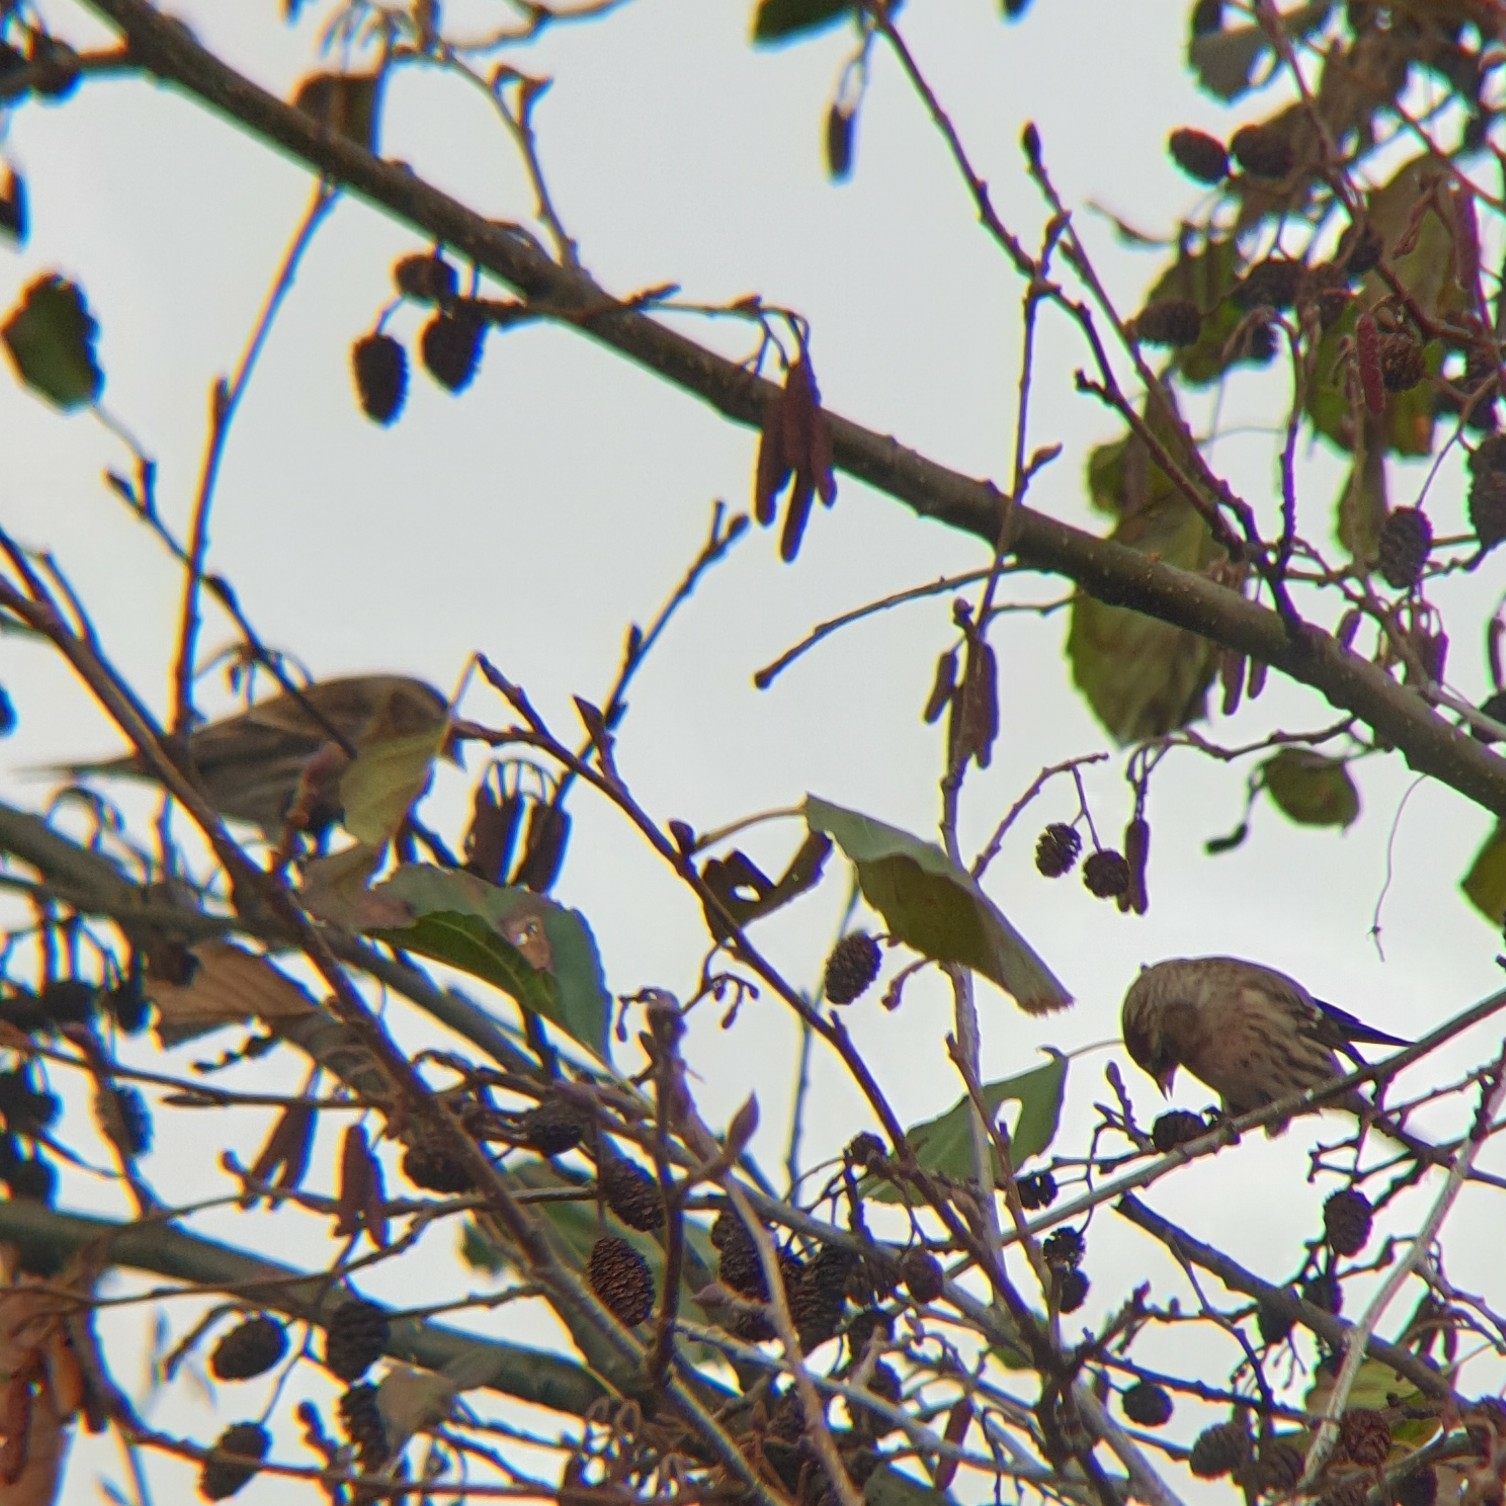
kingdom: Animalia
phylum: Chordata
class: Aves
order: Passeriformes
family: Fringillidae
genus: Acanthis
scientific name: Acanthis flammea
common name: Common redpoll
